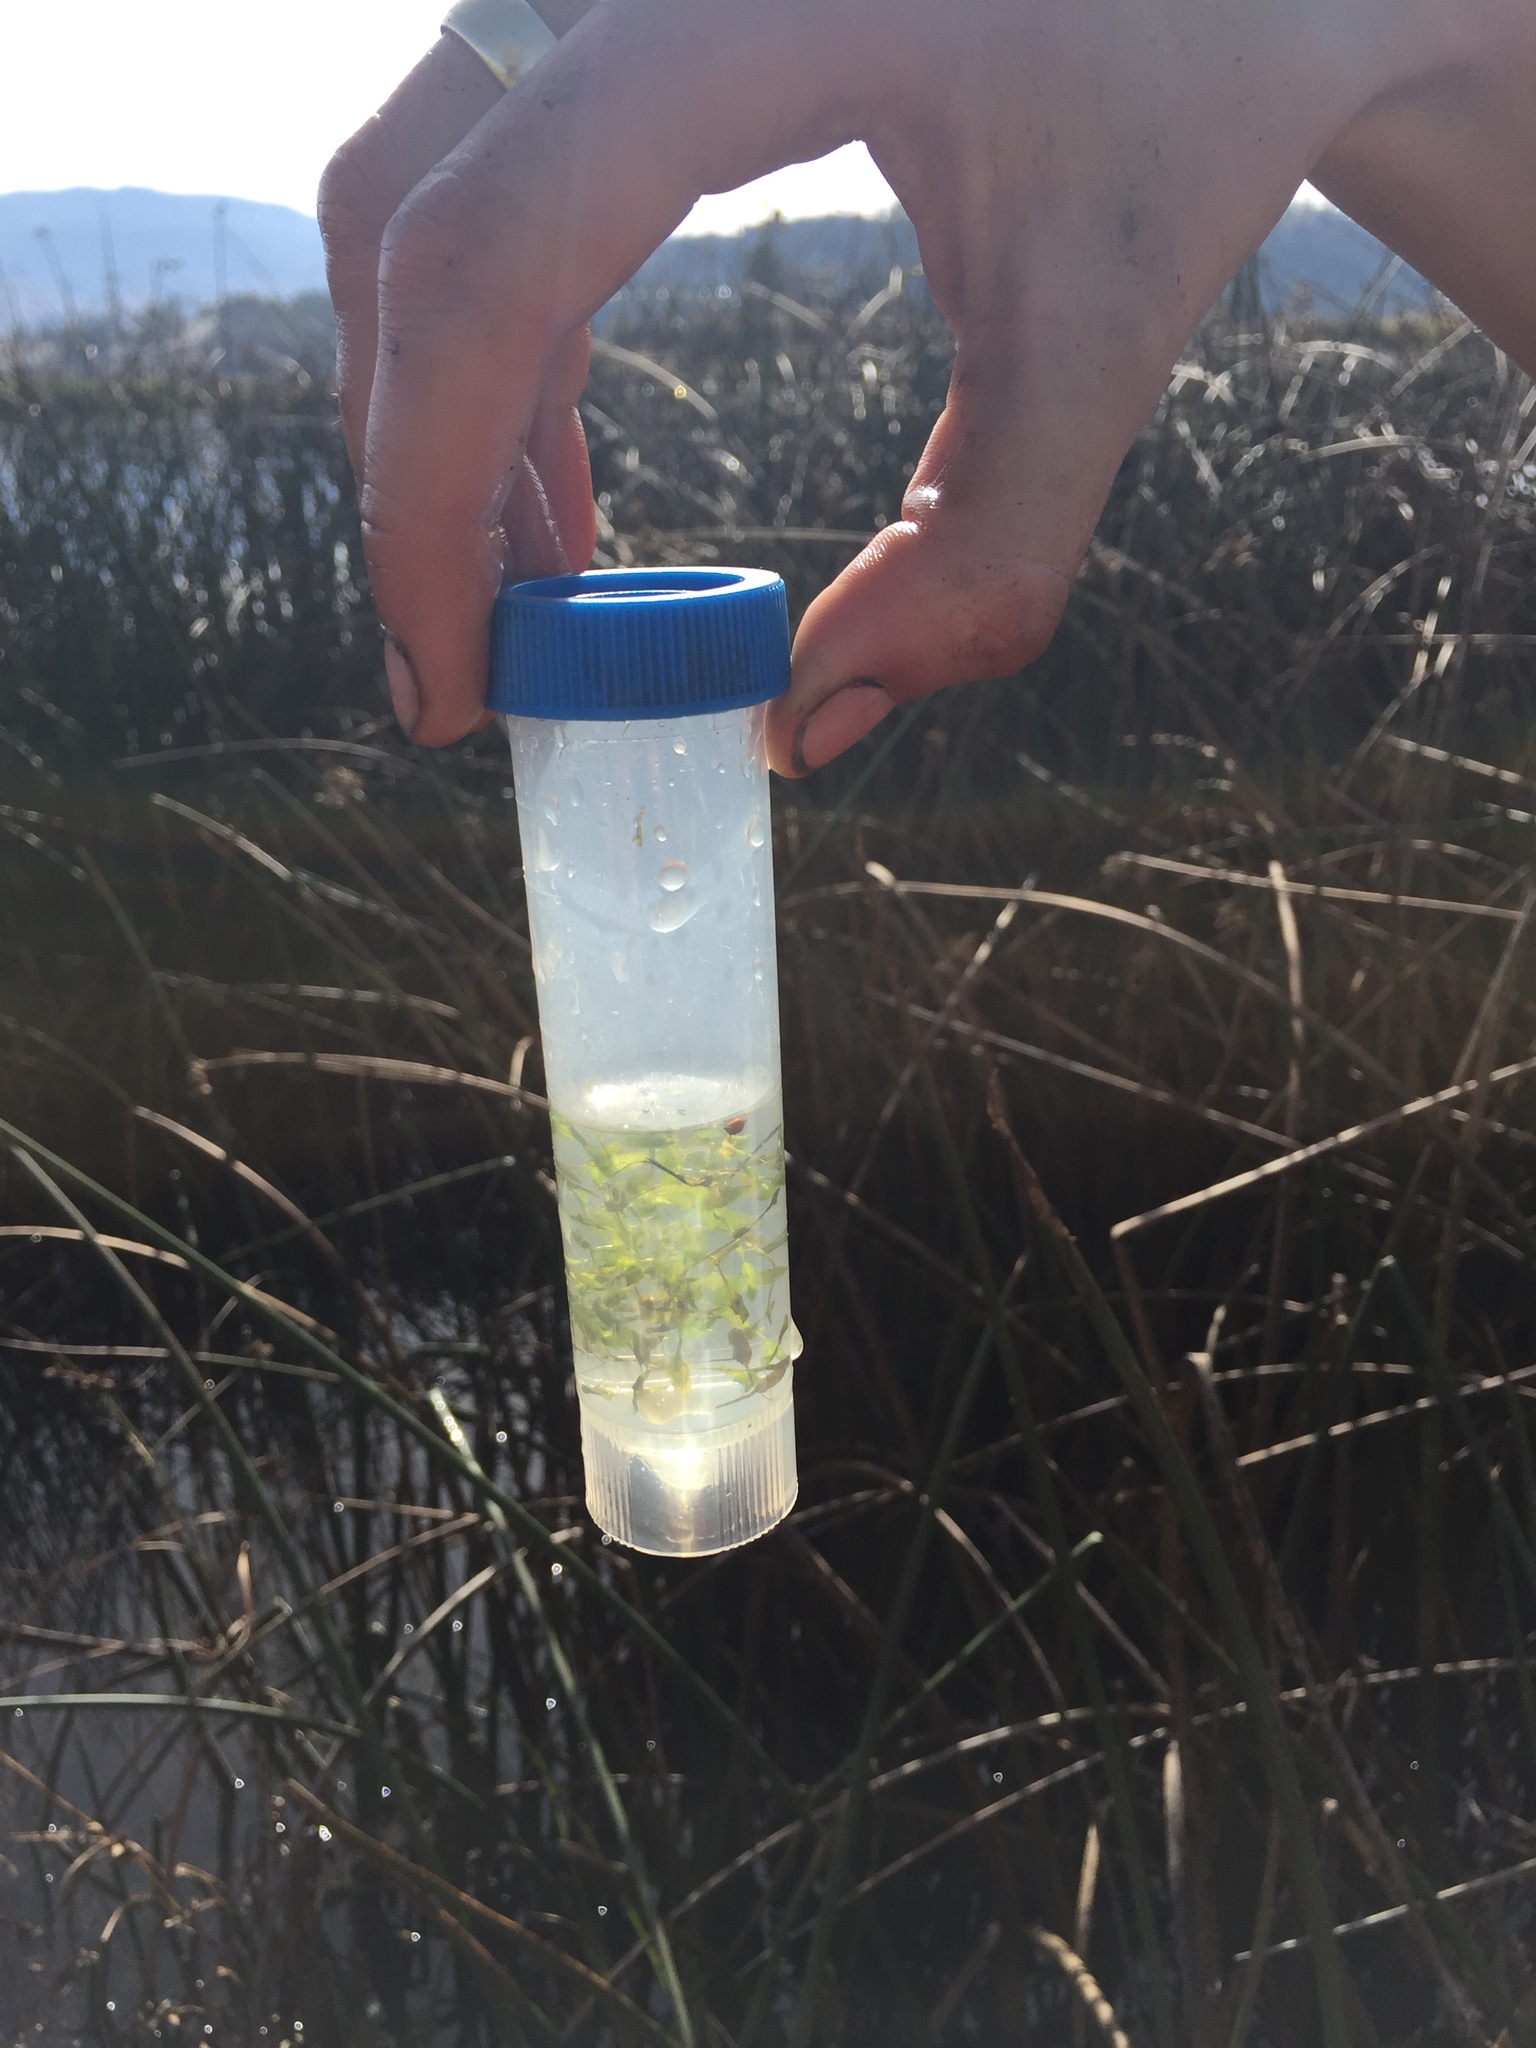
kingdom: Plantae
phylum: Tracheophyta
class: Liliopsida
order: Alismatales
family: Araceae
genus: Lemna
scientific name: Lemna trisulca
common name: Ivy-leaved duckweed
